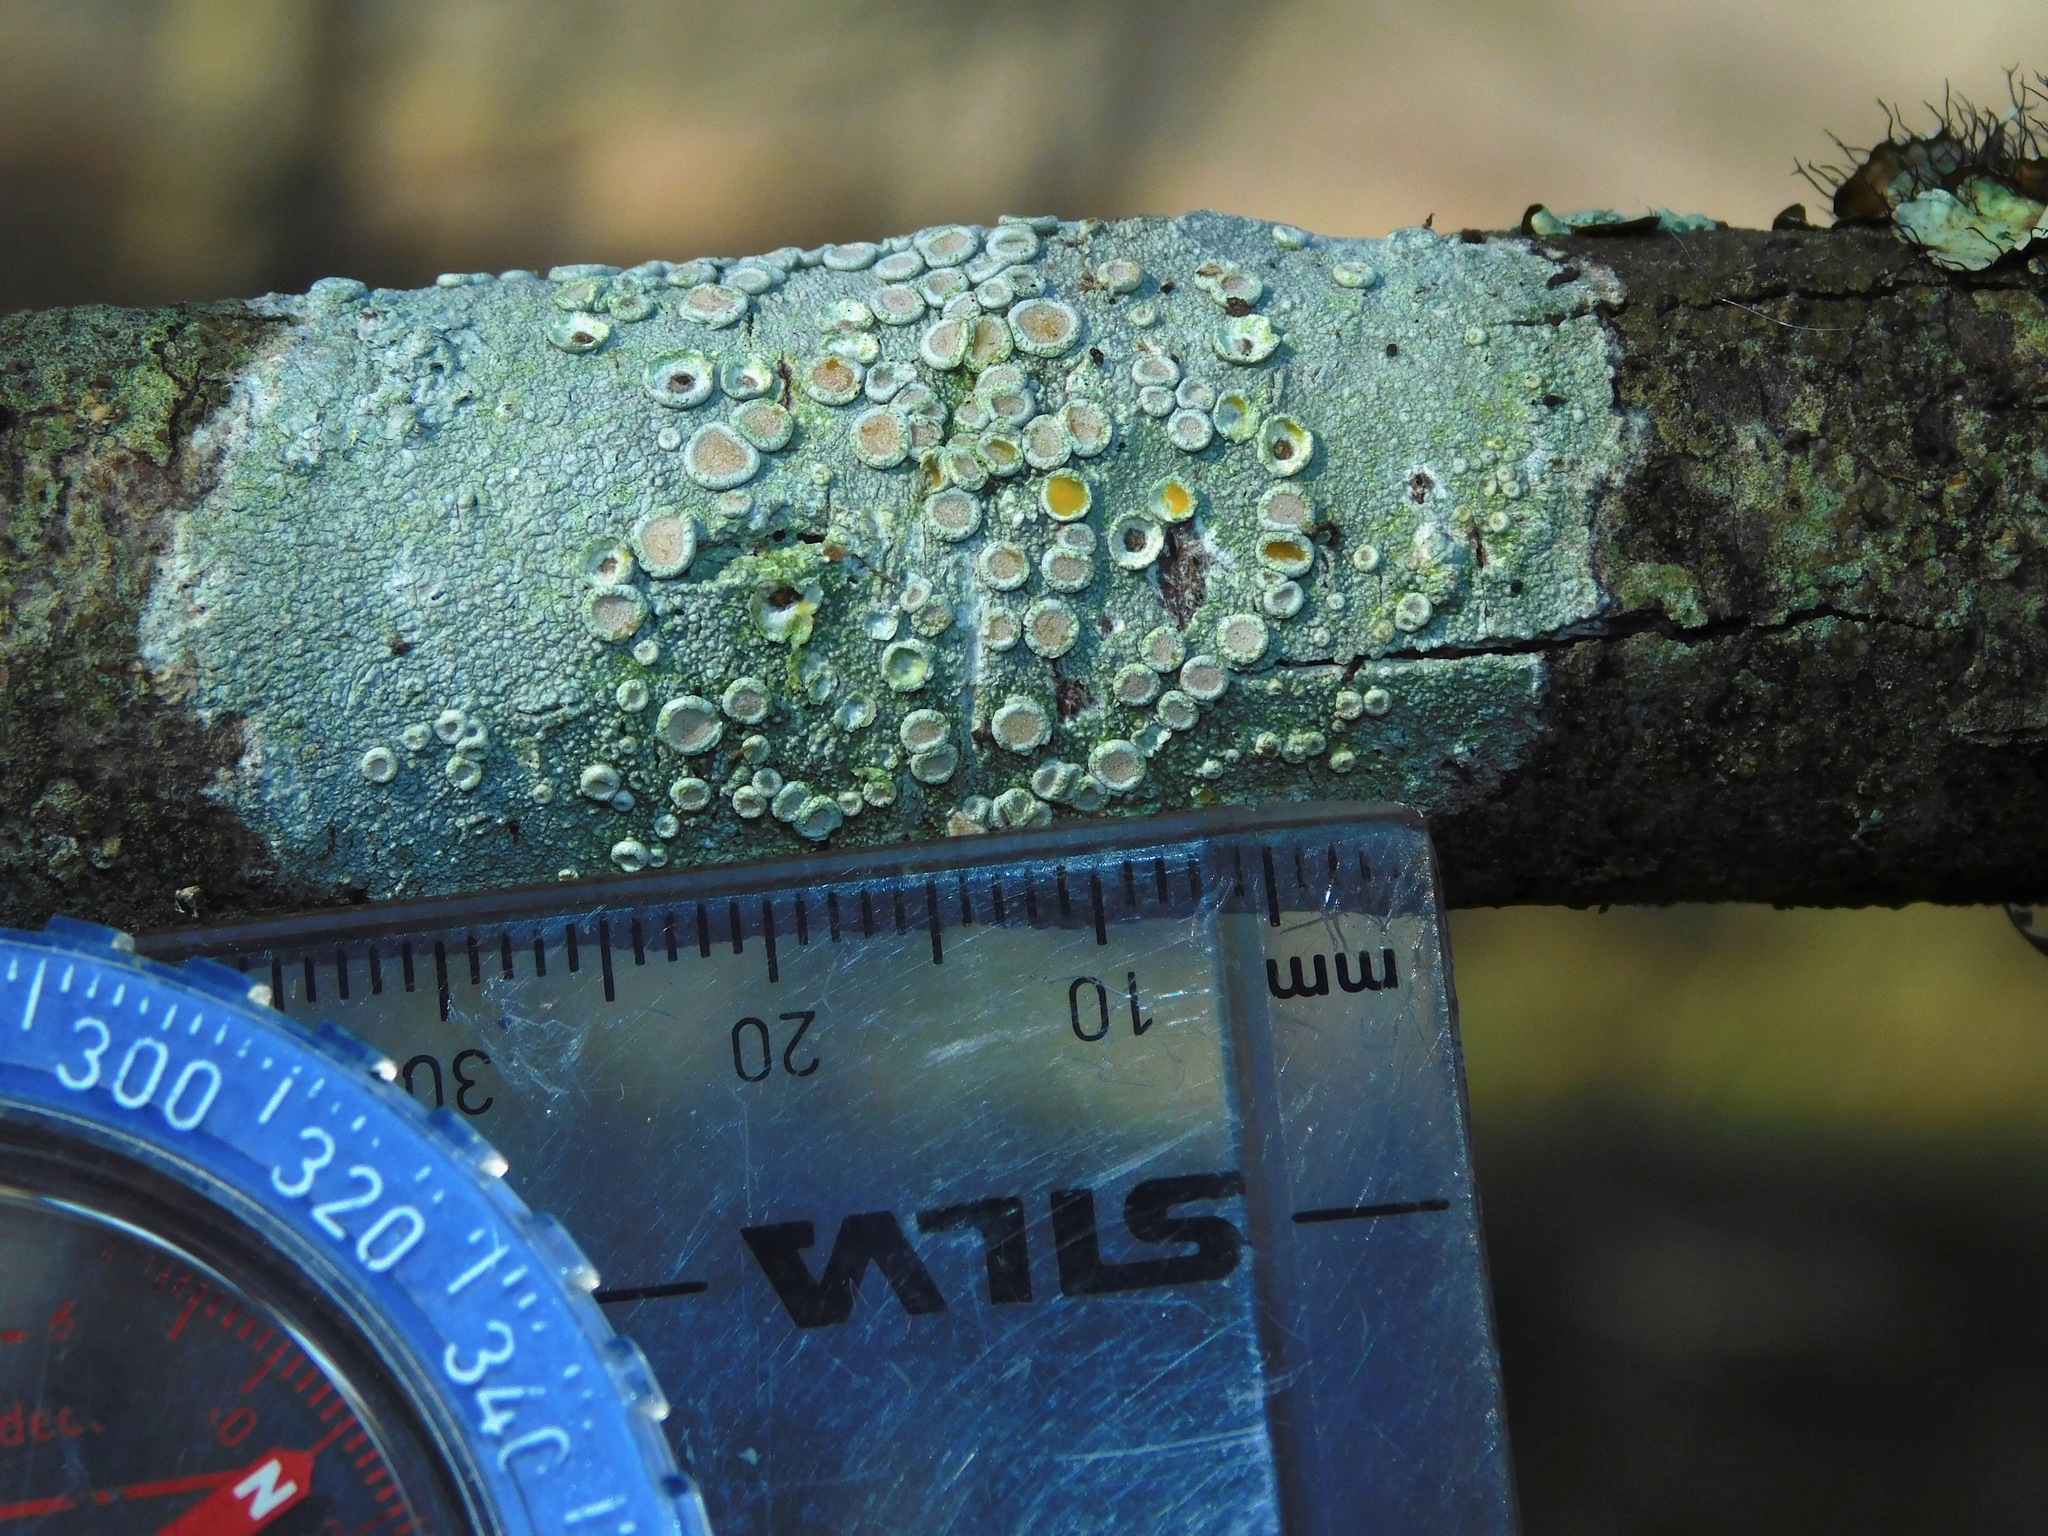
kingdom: Fungi
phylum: Ascomycota
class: Lecanoromycetes
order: Pertusariales
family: Ochrolechiaceae
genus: Ochrolechia
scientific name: Ochrolechia africana
